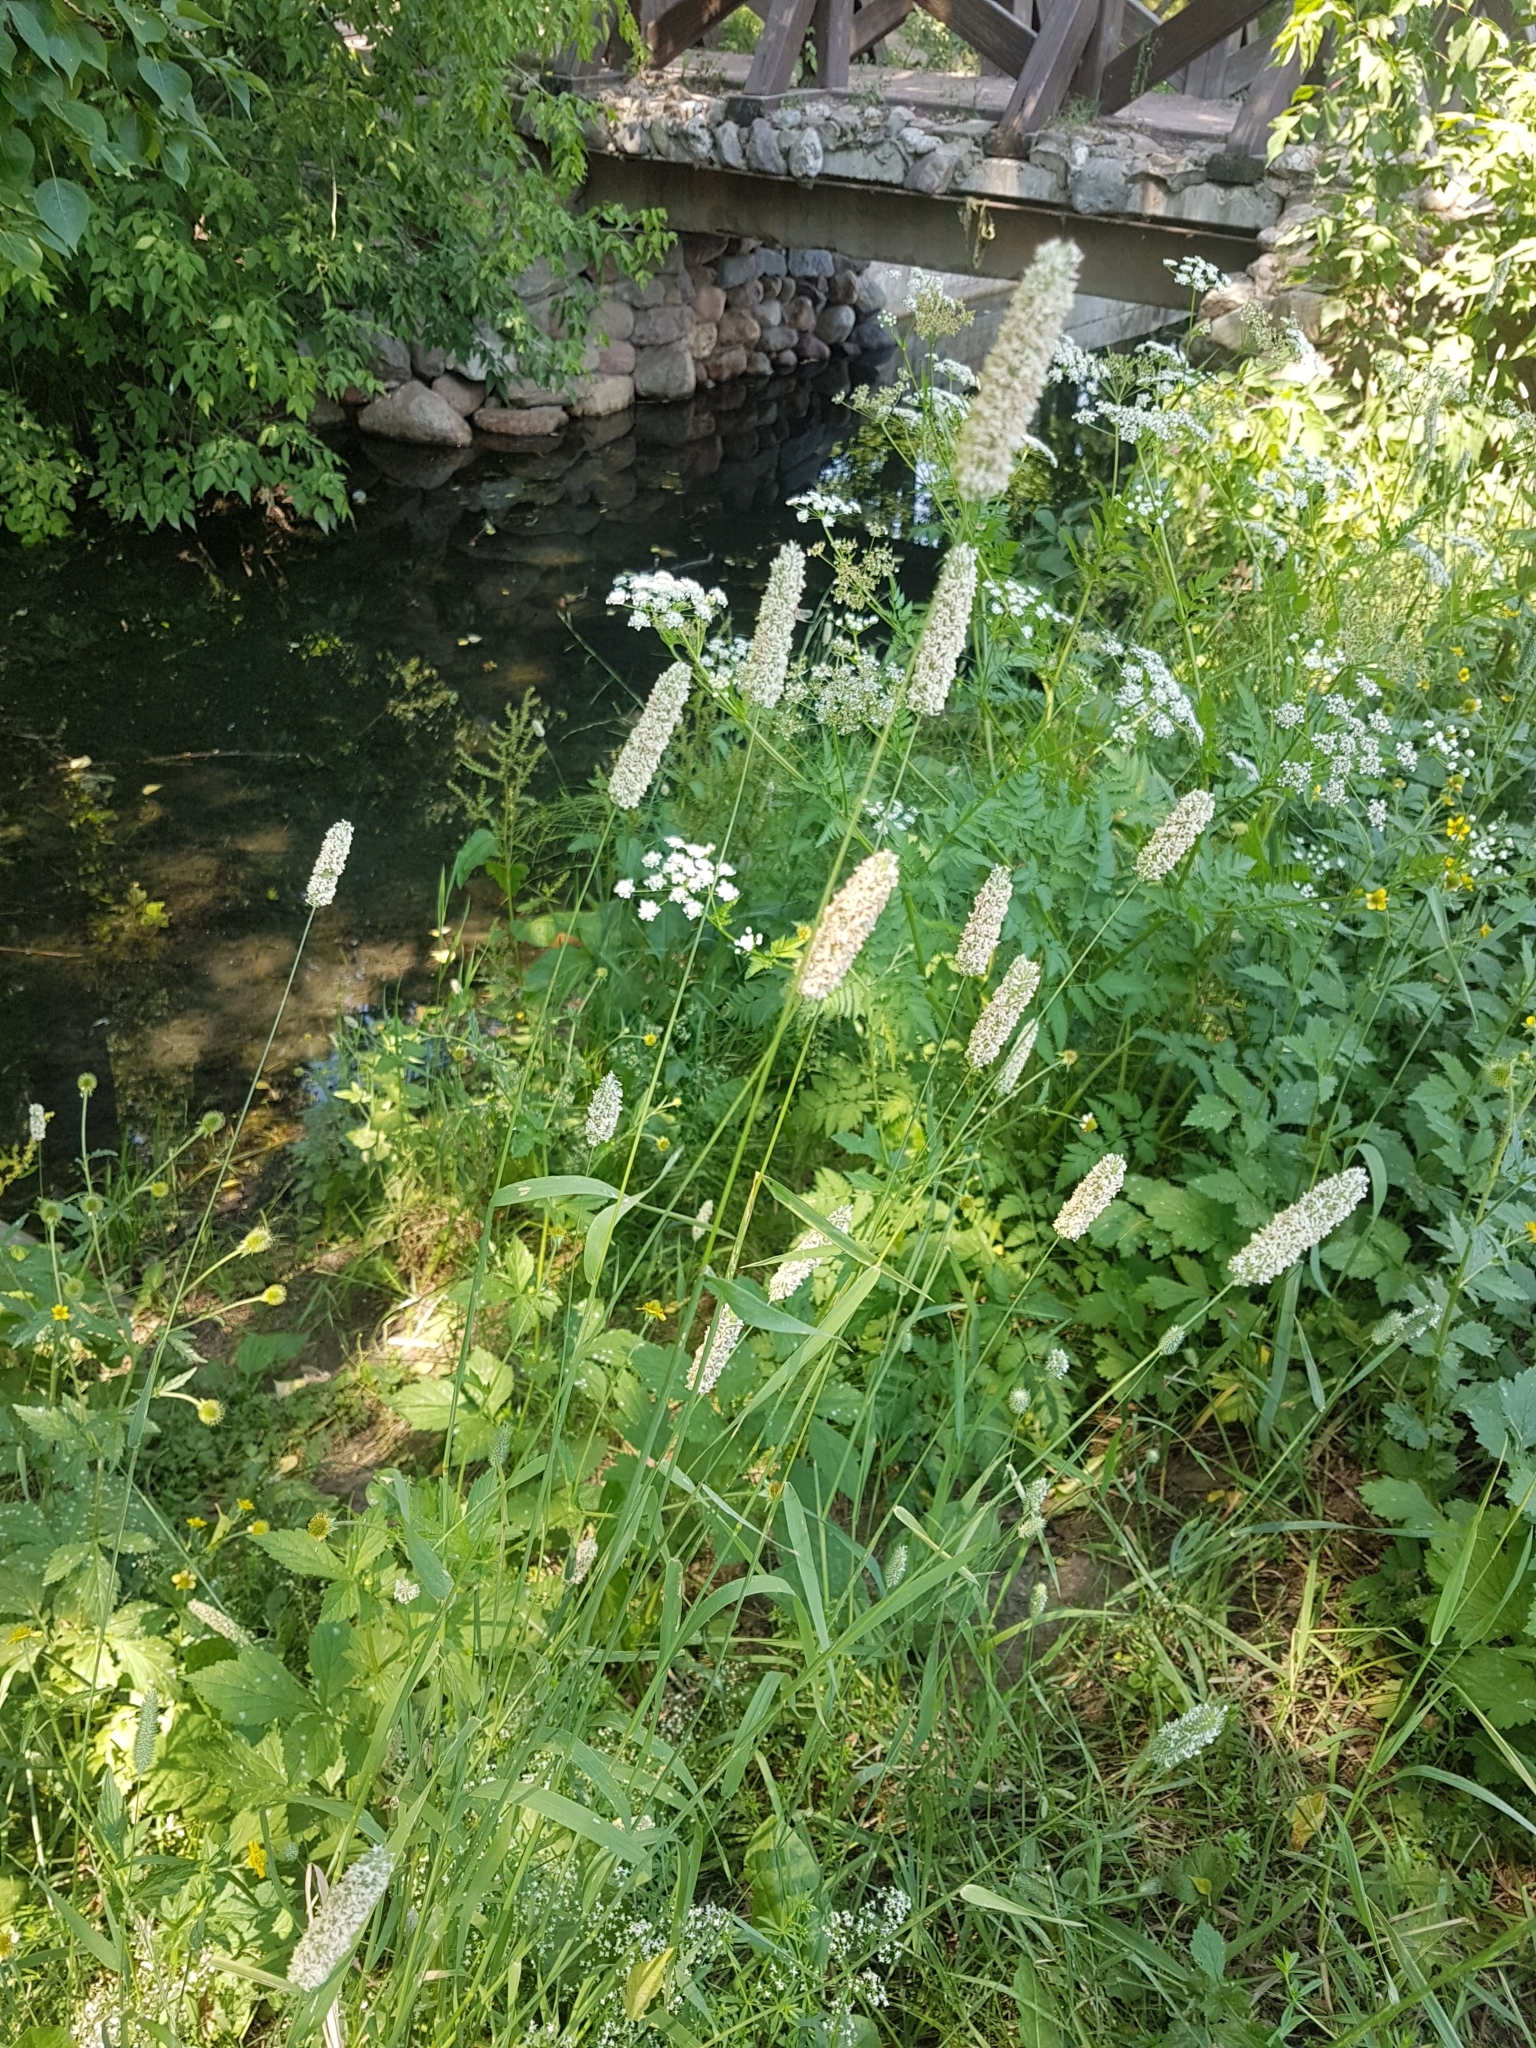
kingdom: Plantae
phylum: Tracheophyta
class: Liliopsida
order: Poales
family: Poaceae
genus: Phleum
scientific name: Phleum pratense
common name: Timothy grass
